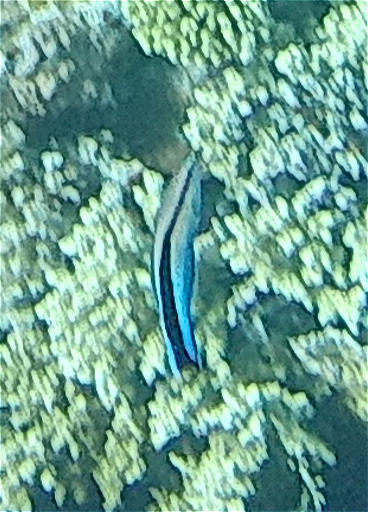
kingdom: Animalia
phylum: Chordata
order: Perciformes
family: Labridae
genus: Labroides
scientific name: Labroides dimidiatus
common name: Blue diesel wrasse
